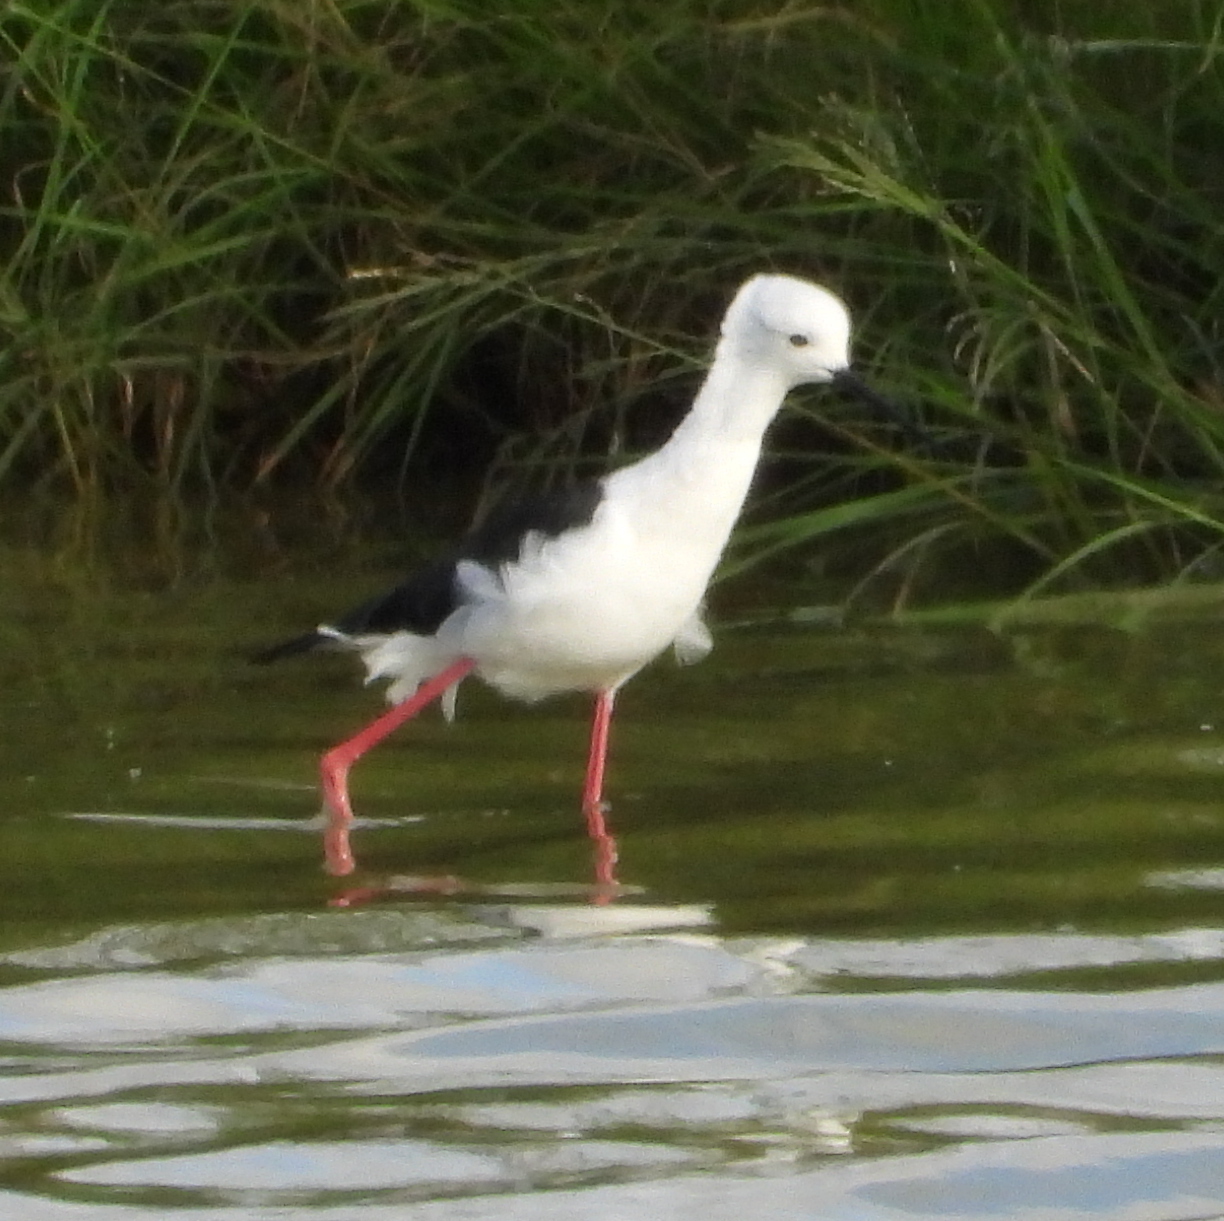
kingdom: Animalia
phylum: Chordata
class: Aves
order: Charadriiformes
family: Recurvirostridae
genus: Himantopus
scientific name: Himantopus himantopus
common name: Black-winged stilt
